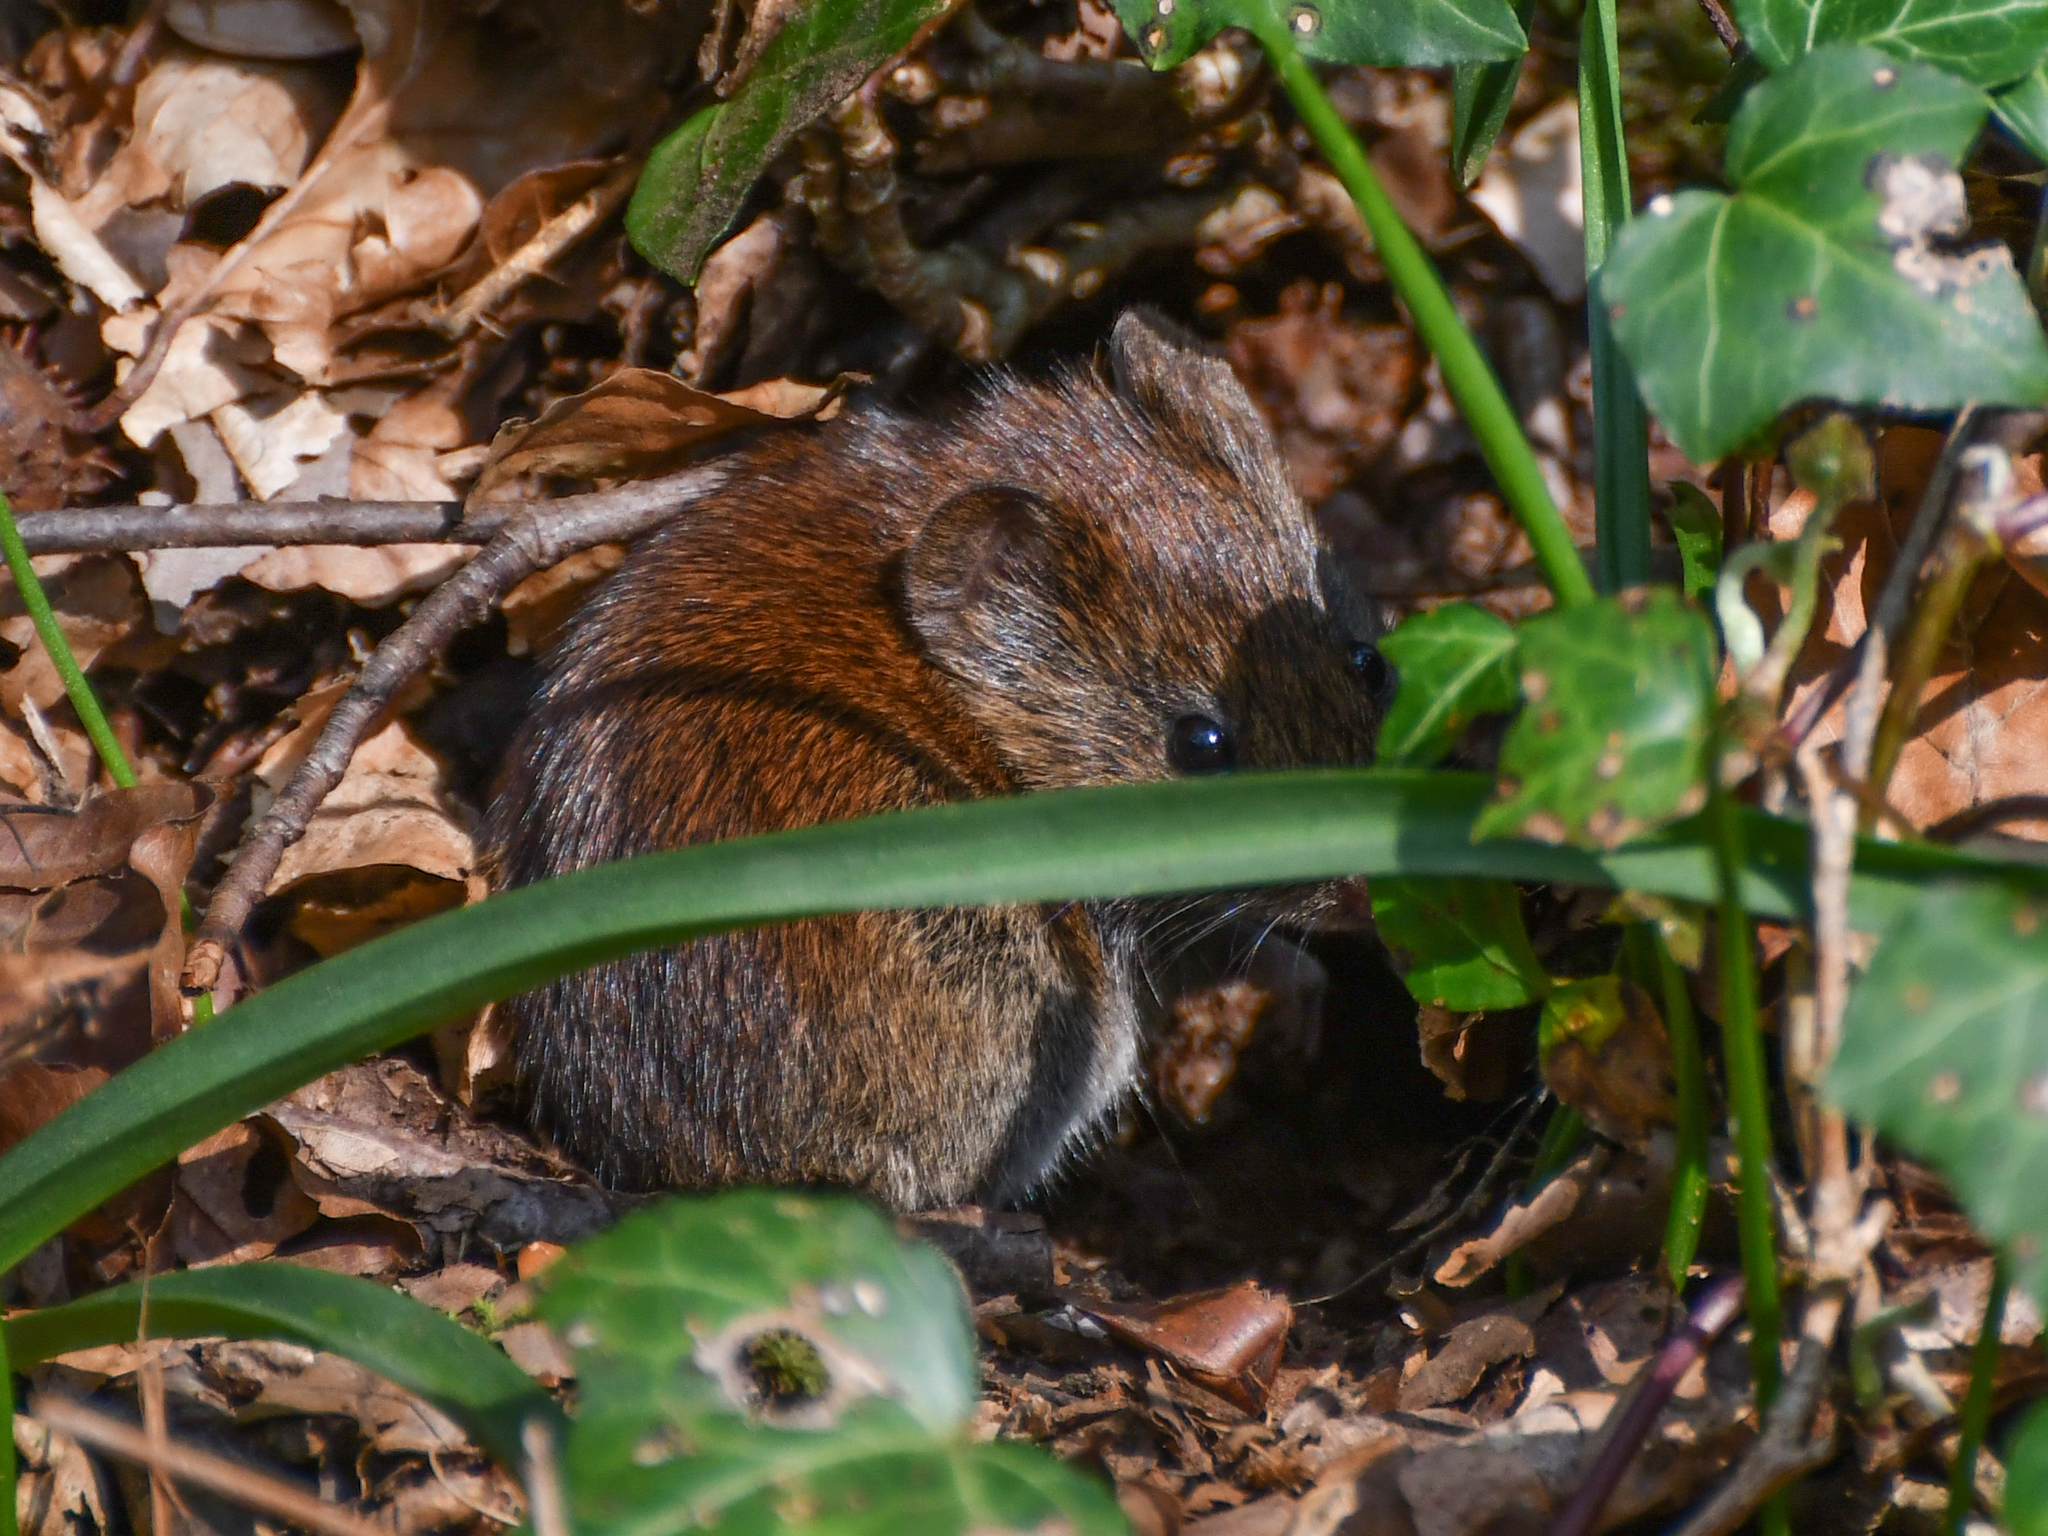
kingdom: Animalia
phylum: Chordata
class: Mammalia
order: Rodentia
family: Cricetidae
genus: Myodes
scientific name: Myodes glareolus
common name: Bank vole
